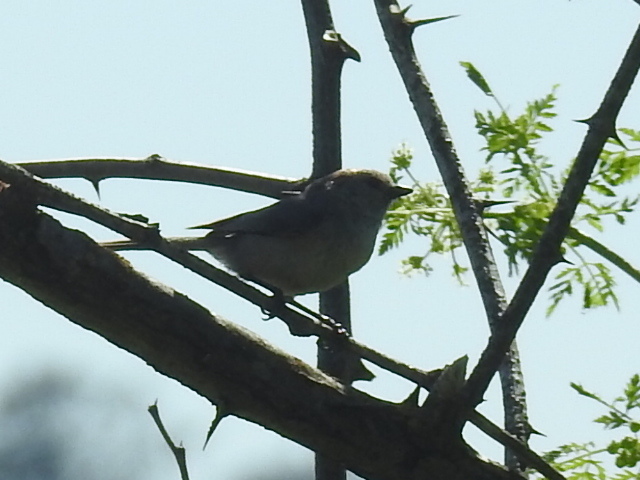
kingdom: Animalia
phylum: Chordata
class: Aves
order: Passeriformes
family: Aegithalidae
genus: Psaltriparus
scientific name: Psaltriparus minimus
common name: American bushtit
